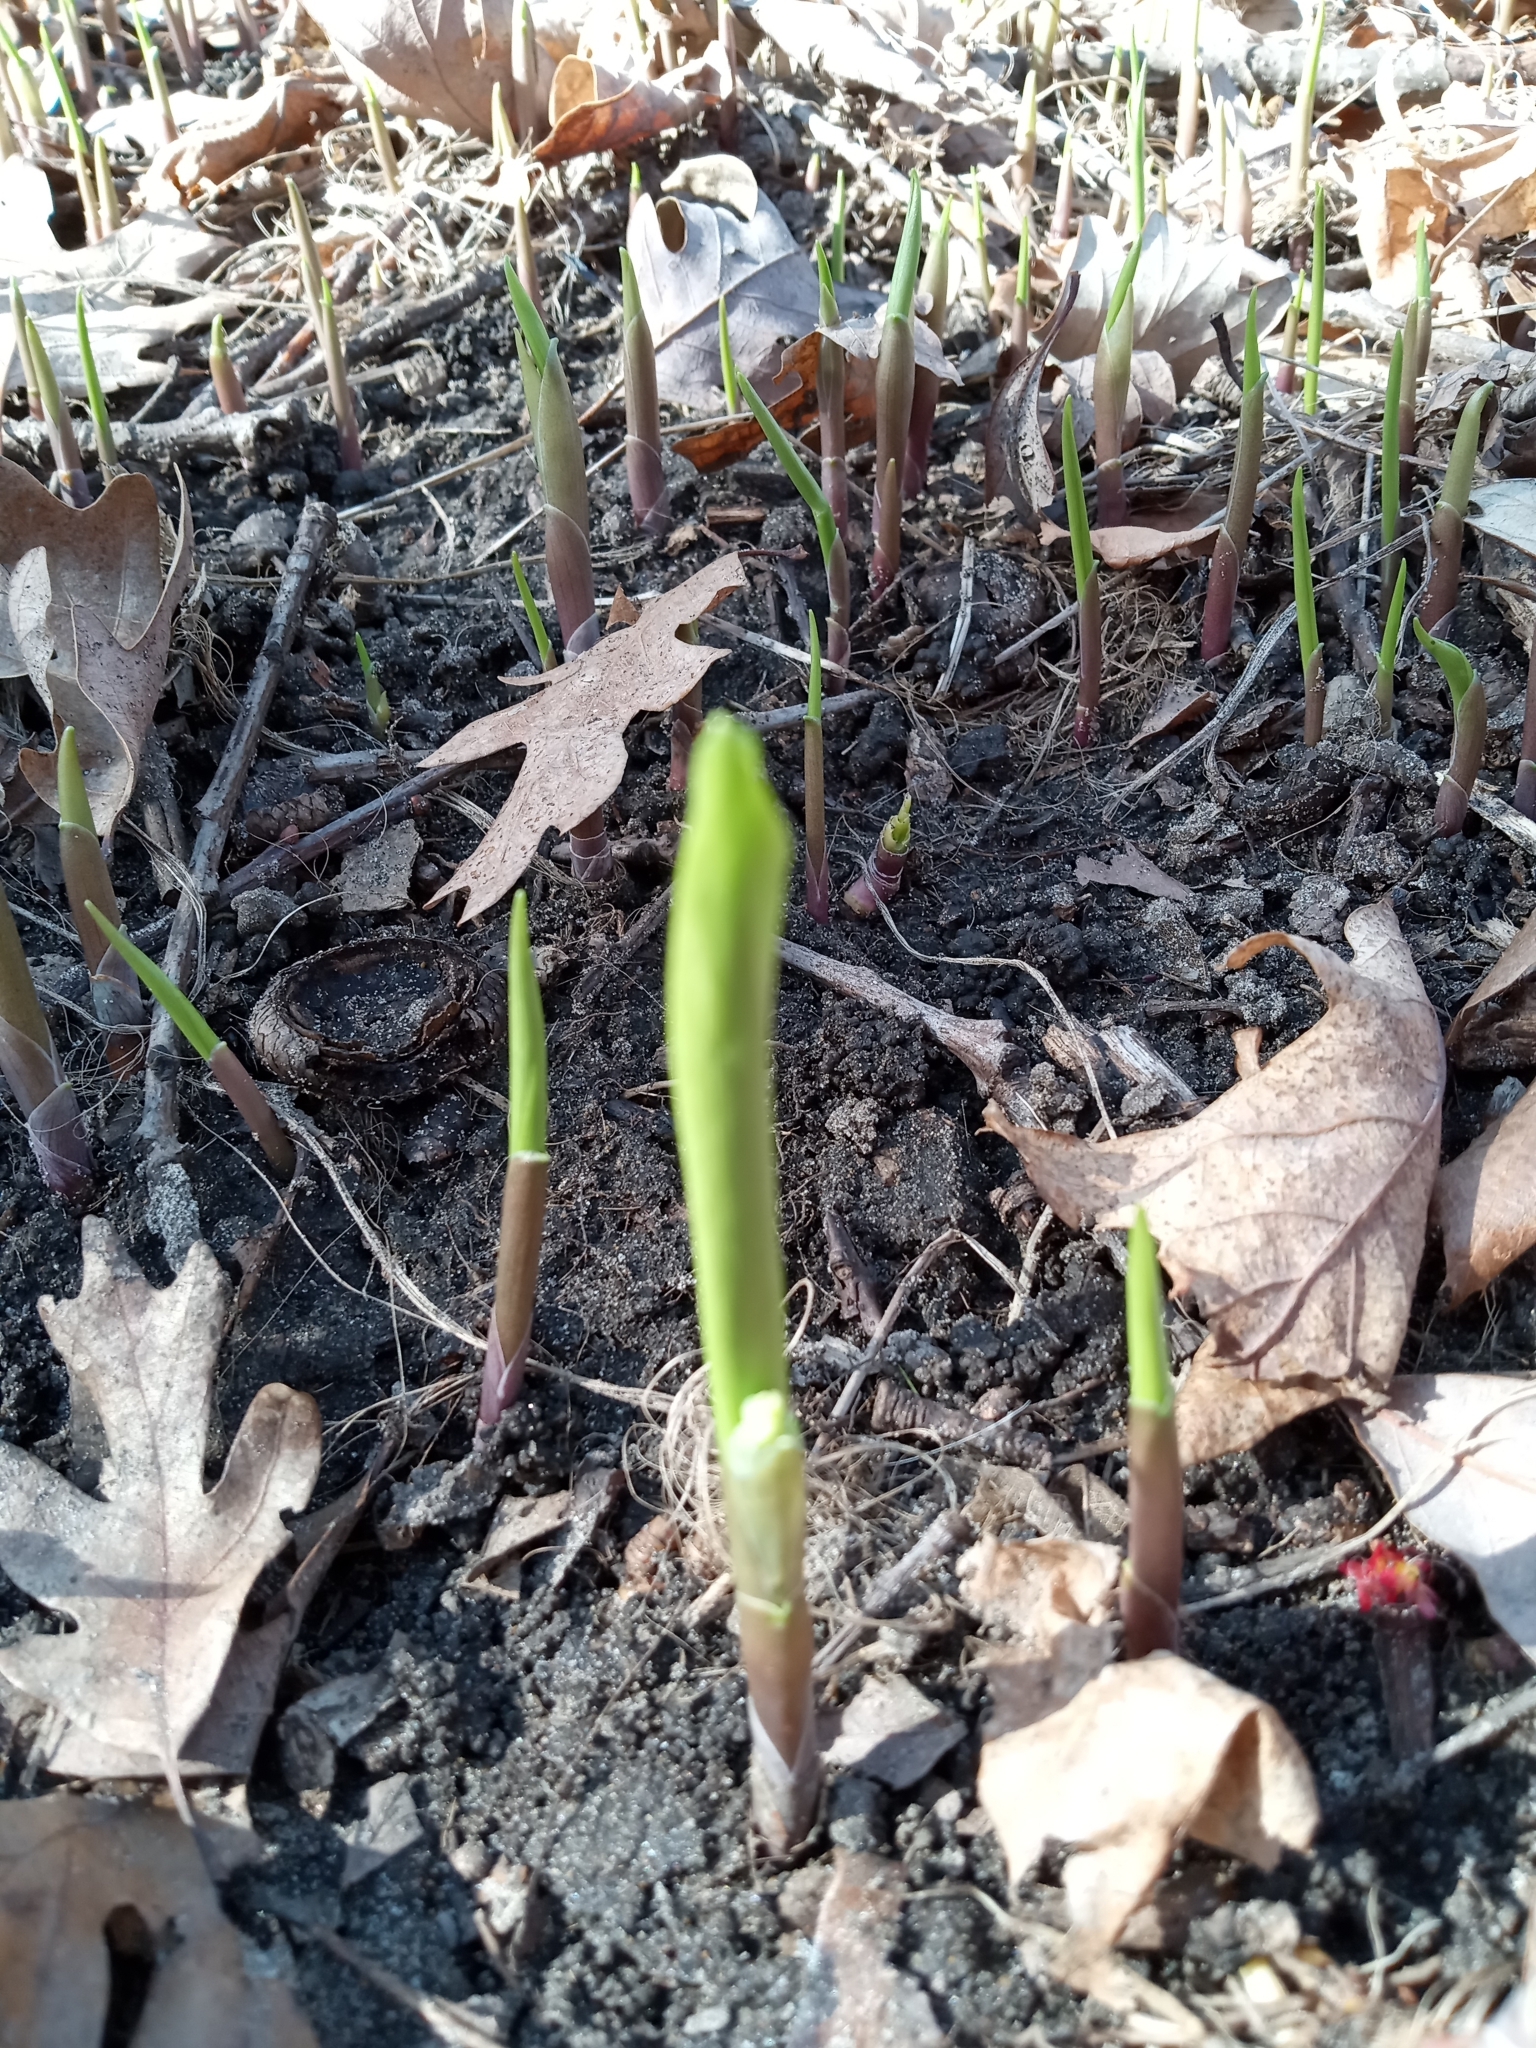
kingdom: Plantae
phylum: Tracheophyta
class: Liliopsida
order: Asparagales
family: Asparagaceae
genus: Convallaria
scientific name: Convallaria majalis
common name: Lily-of-the-valley
